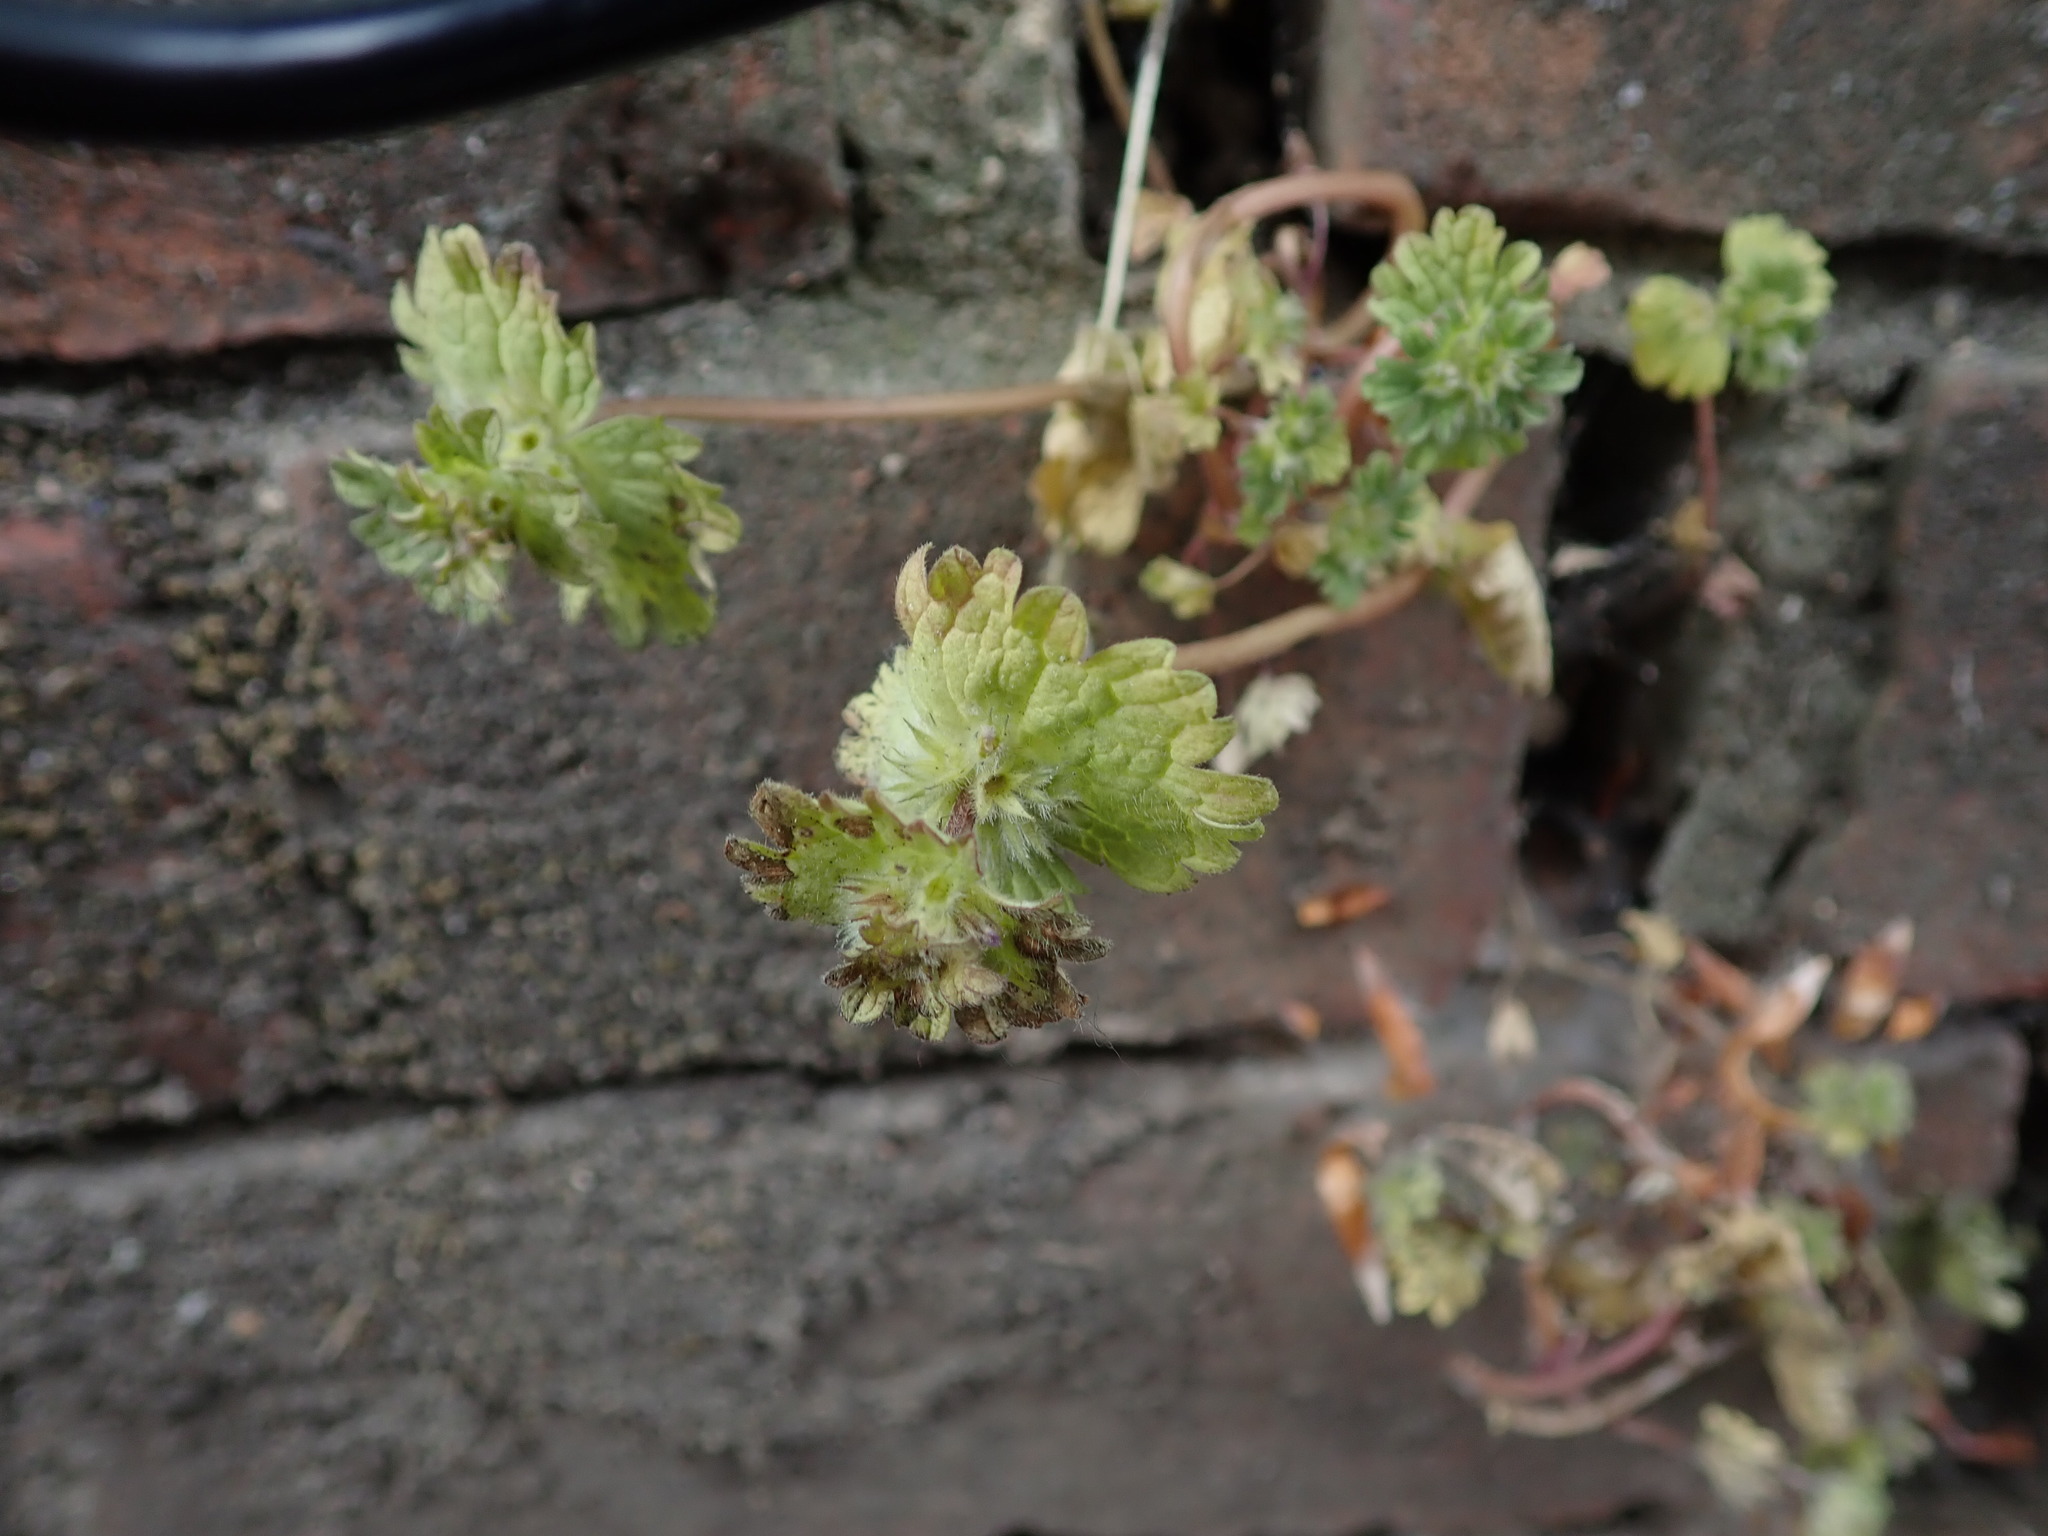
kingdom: Plantae
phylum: Tracheophyta
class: Magnoliopsida
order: Lamiales
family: Lamiaceae
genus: Lamium
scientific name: Lamium amplexicaule
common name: Henbit dead-nettle
